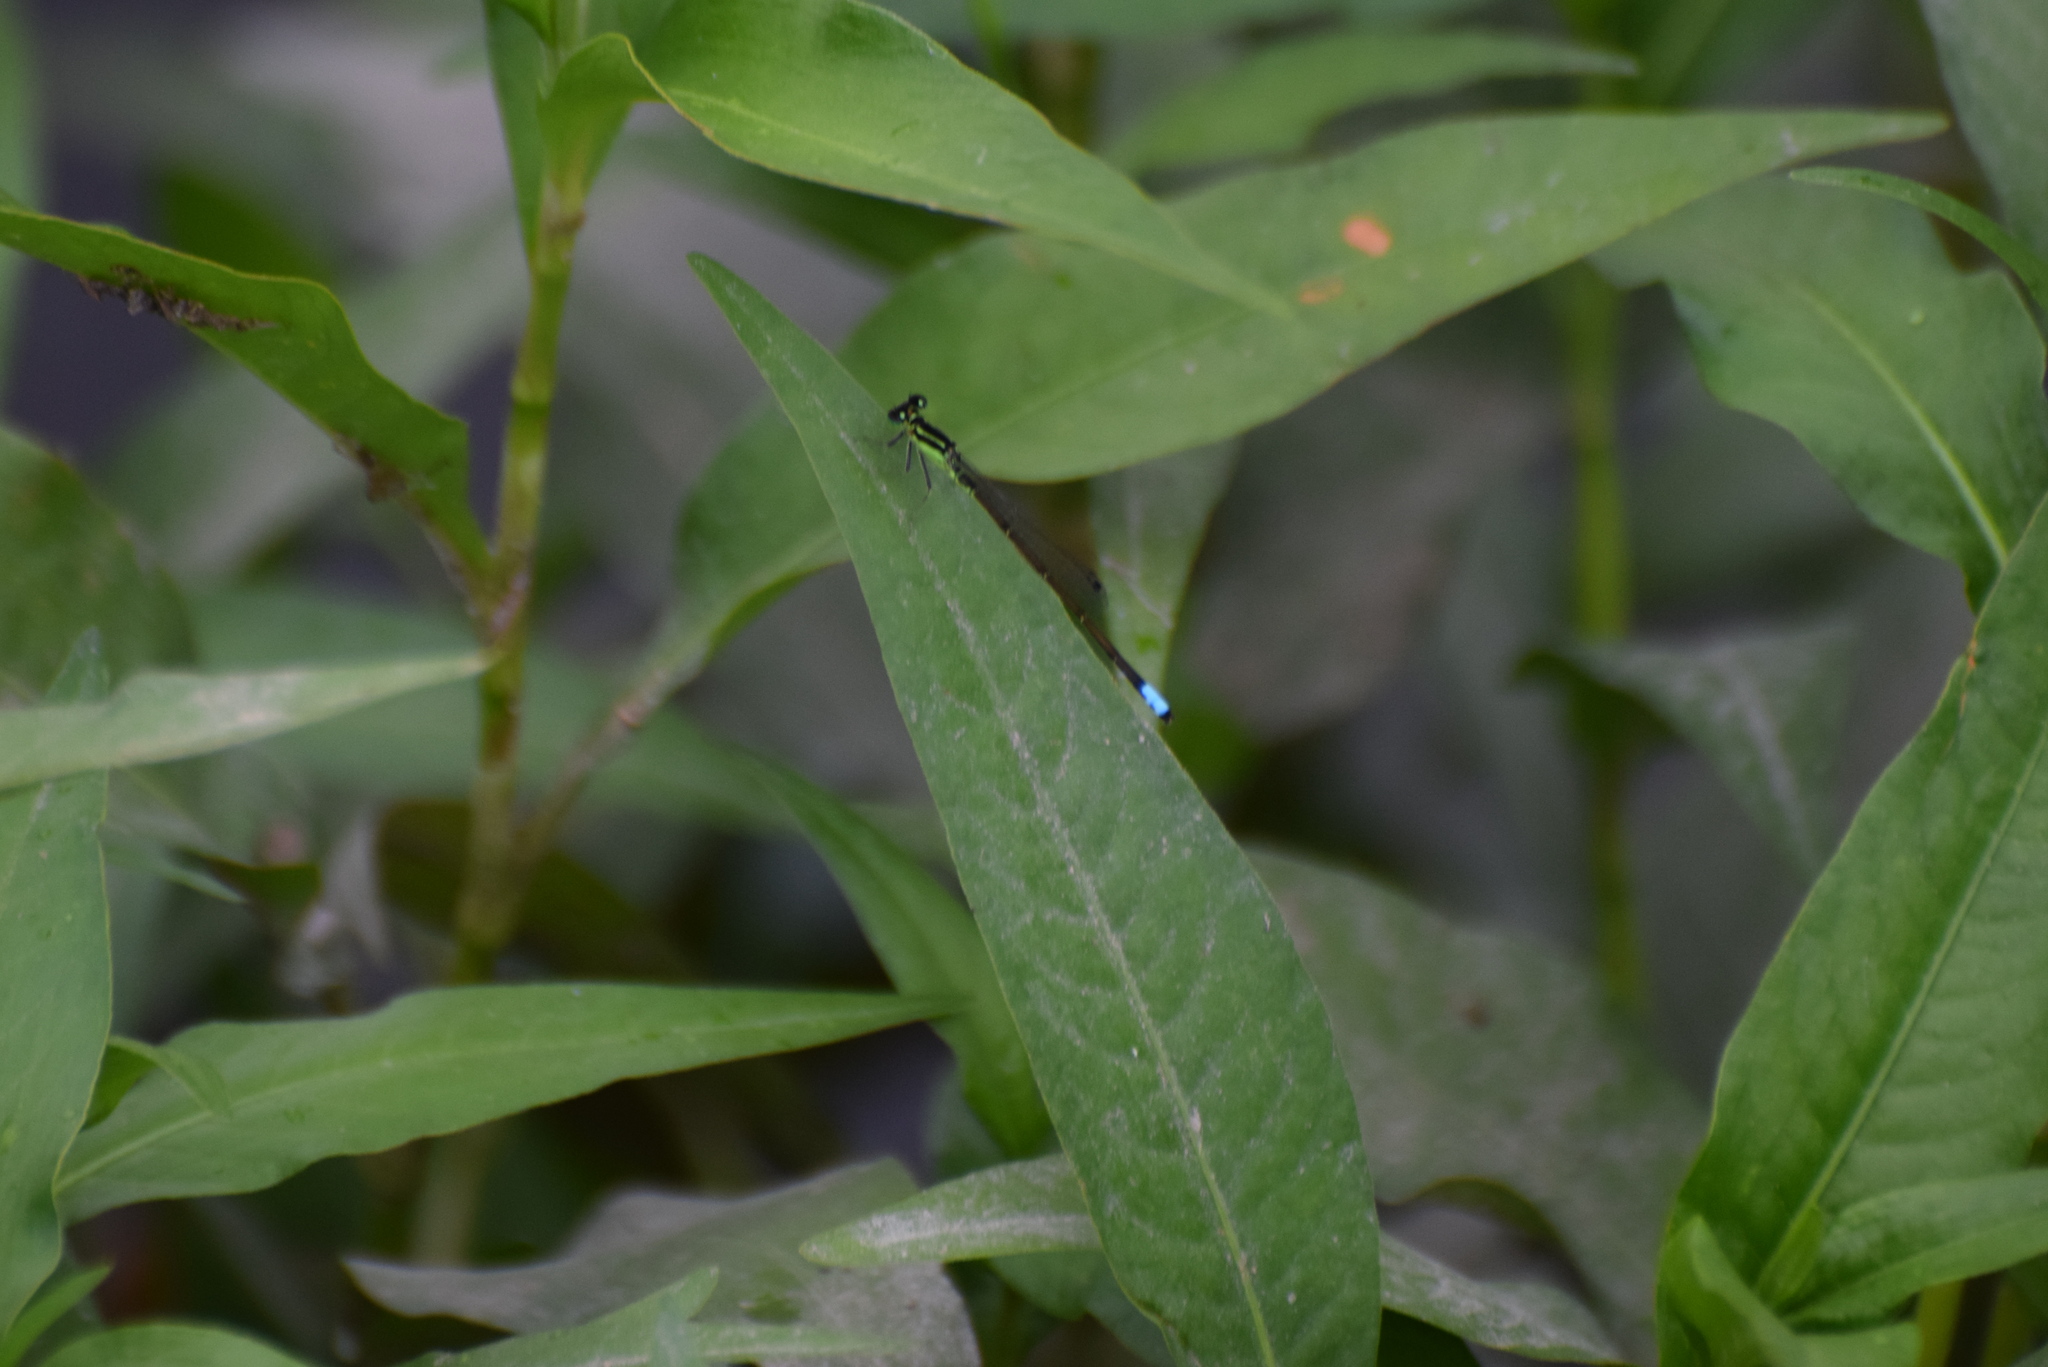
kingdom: Animalia
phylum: Arthropoda
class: Insecta
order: Odonata
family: Coenagrionidae
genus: Ischnura
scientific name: Ischnura verticalis
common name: Eastern forktail
